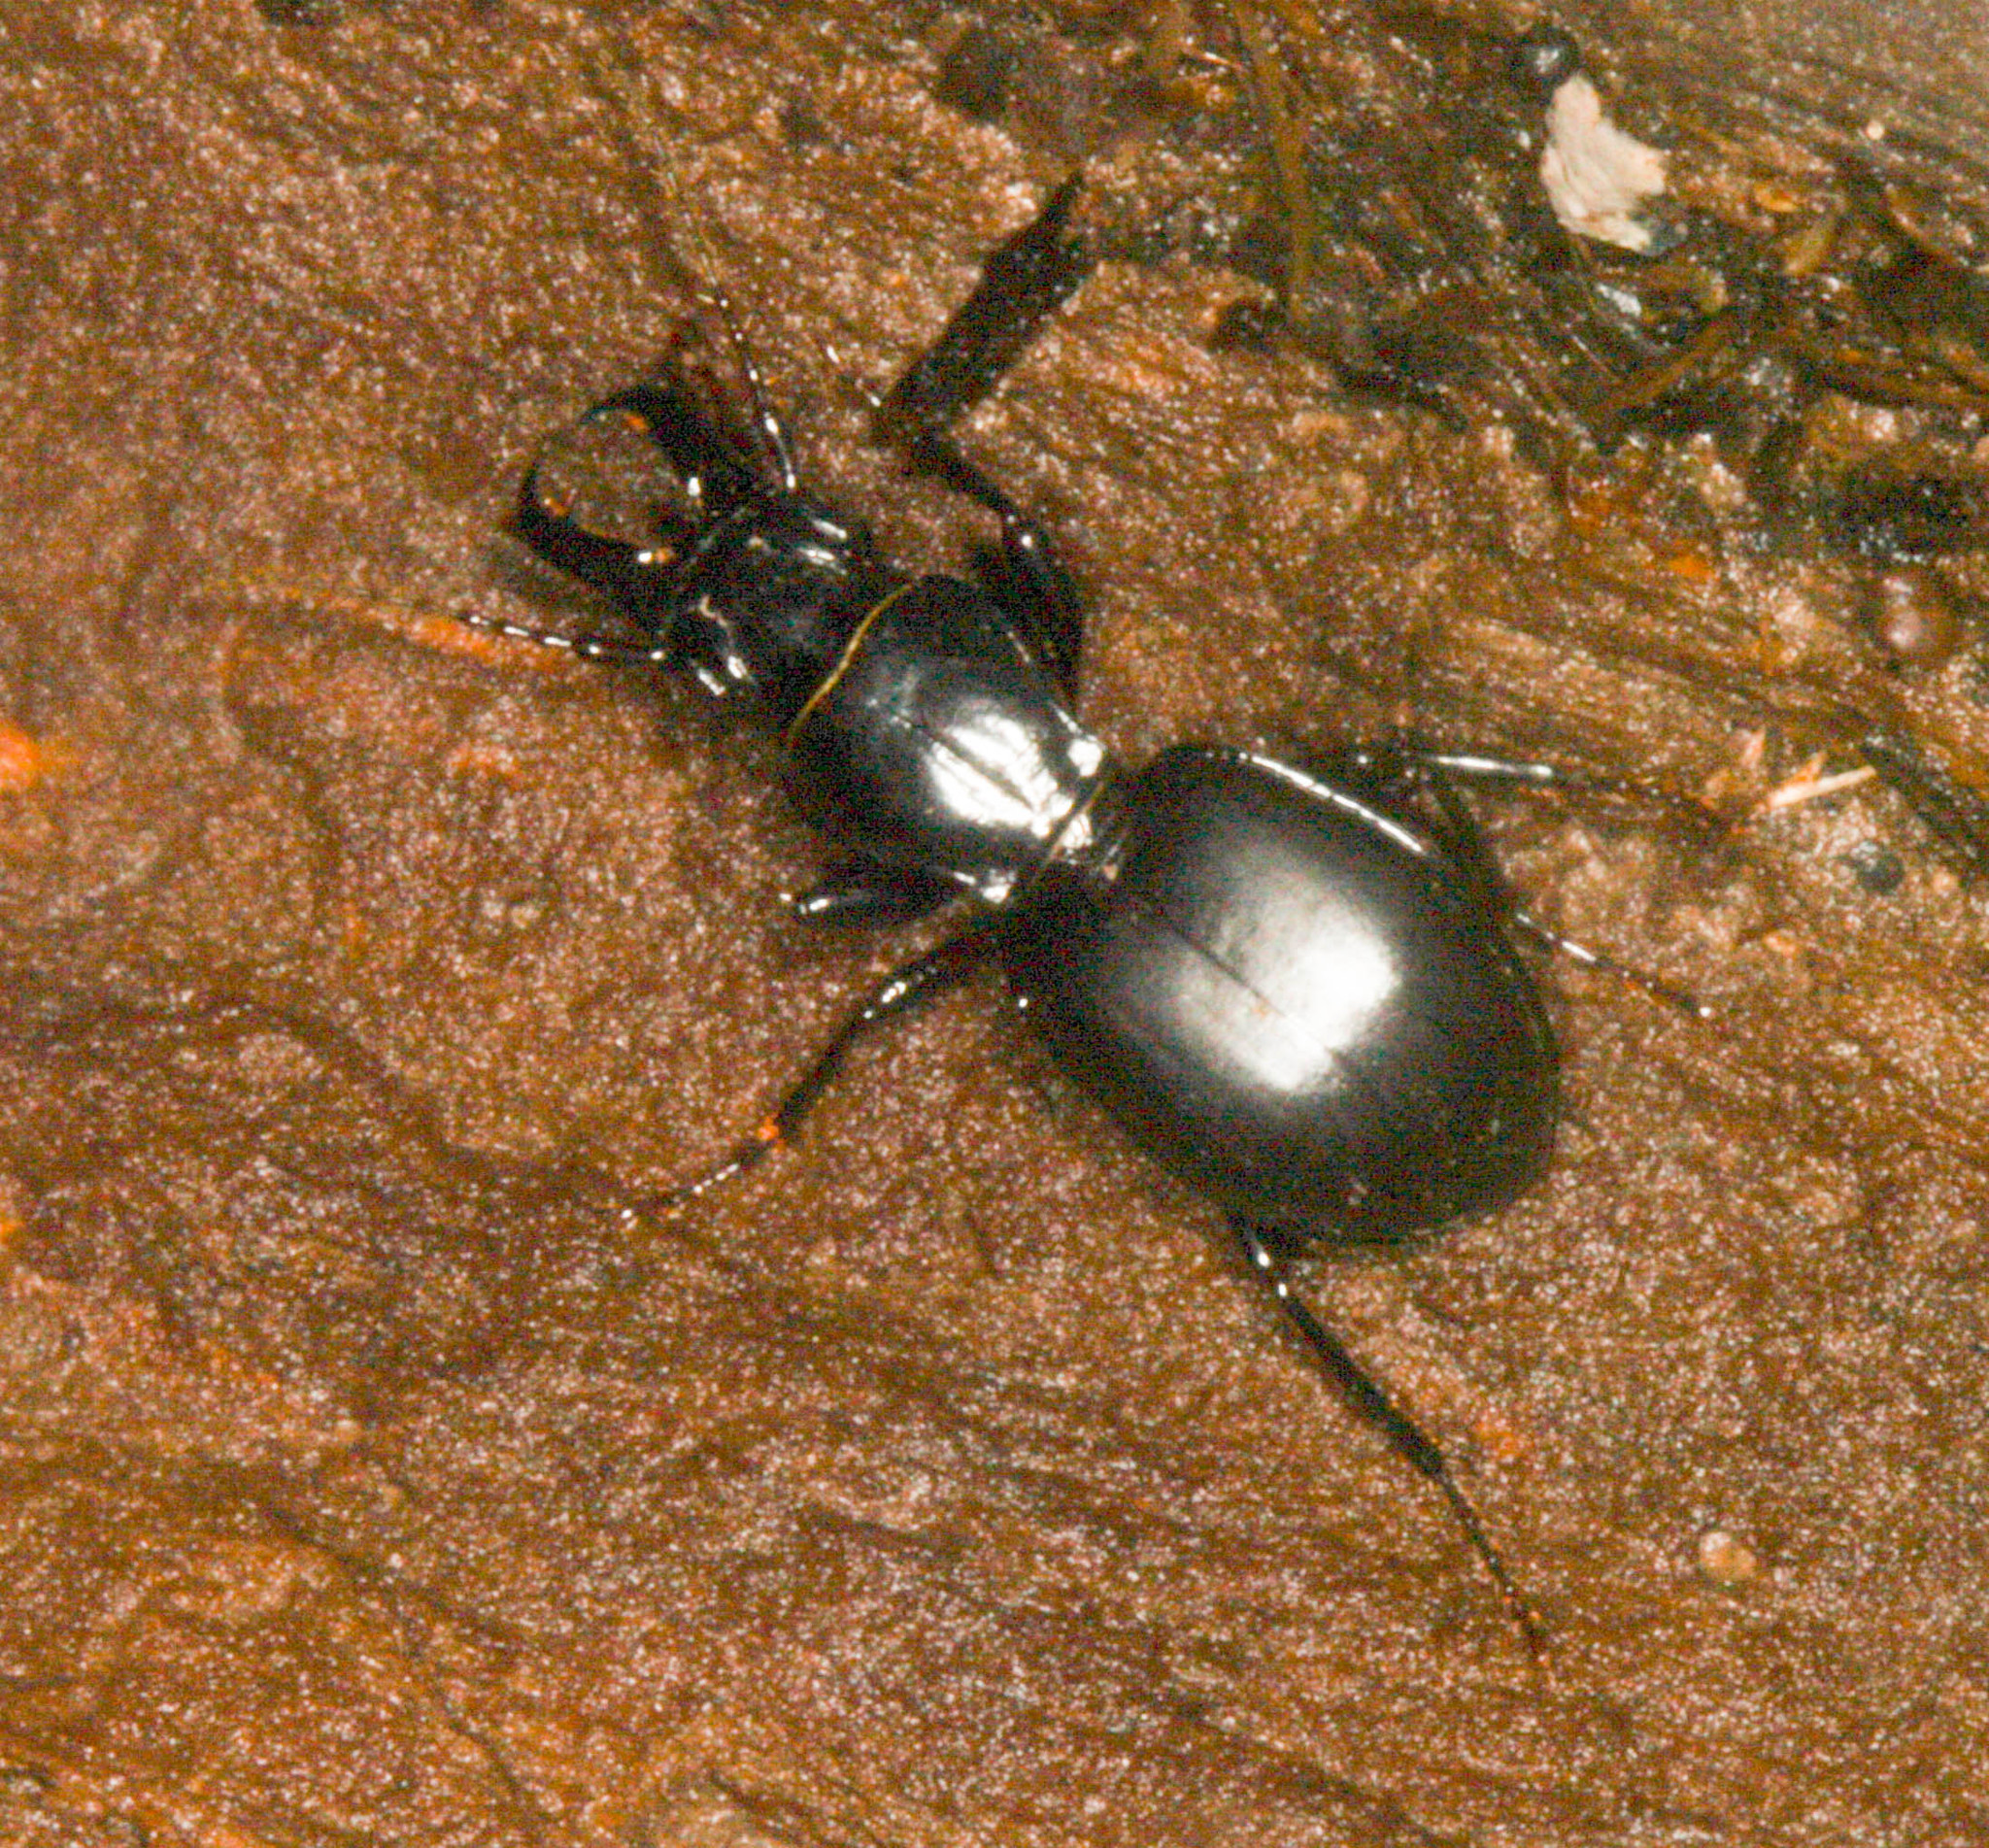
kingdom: Animalia
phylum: Arthropoda
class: Insecta
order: Coleoptera
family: Carabidae
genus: Promecognathus
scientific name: Promecognathus crassus
